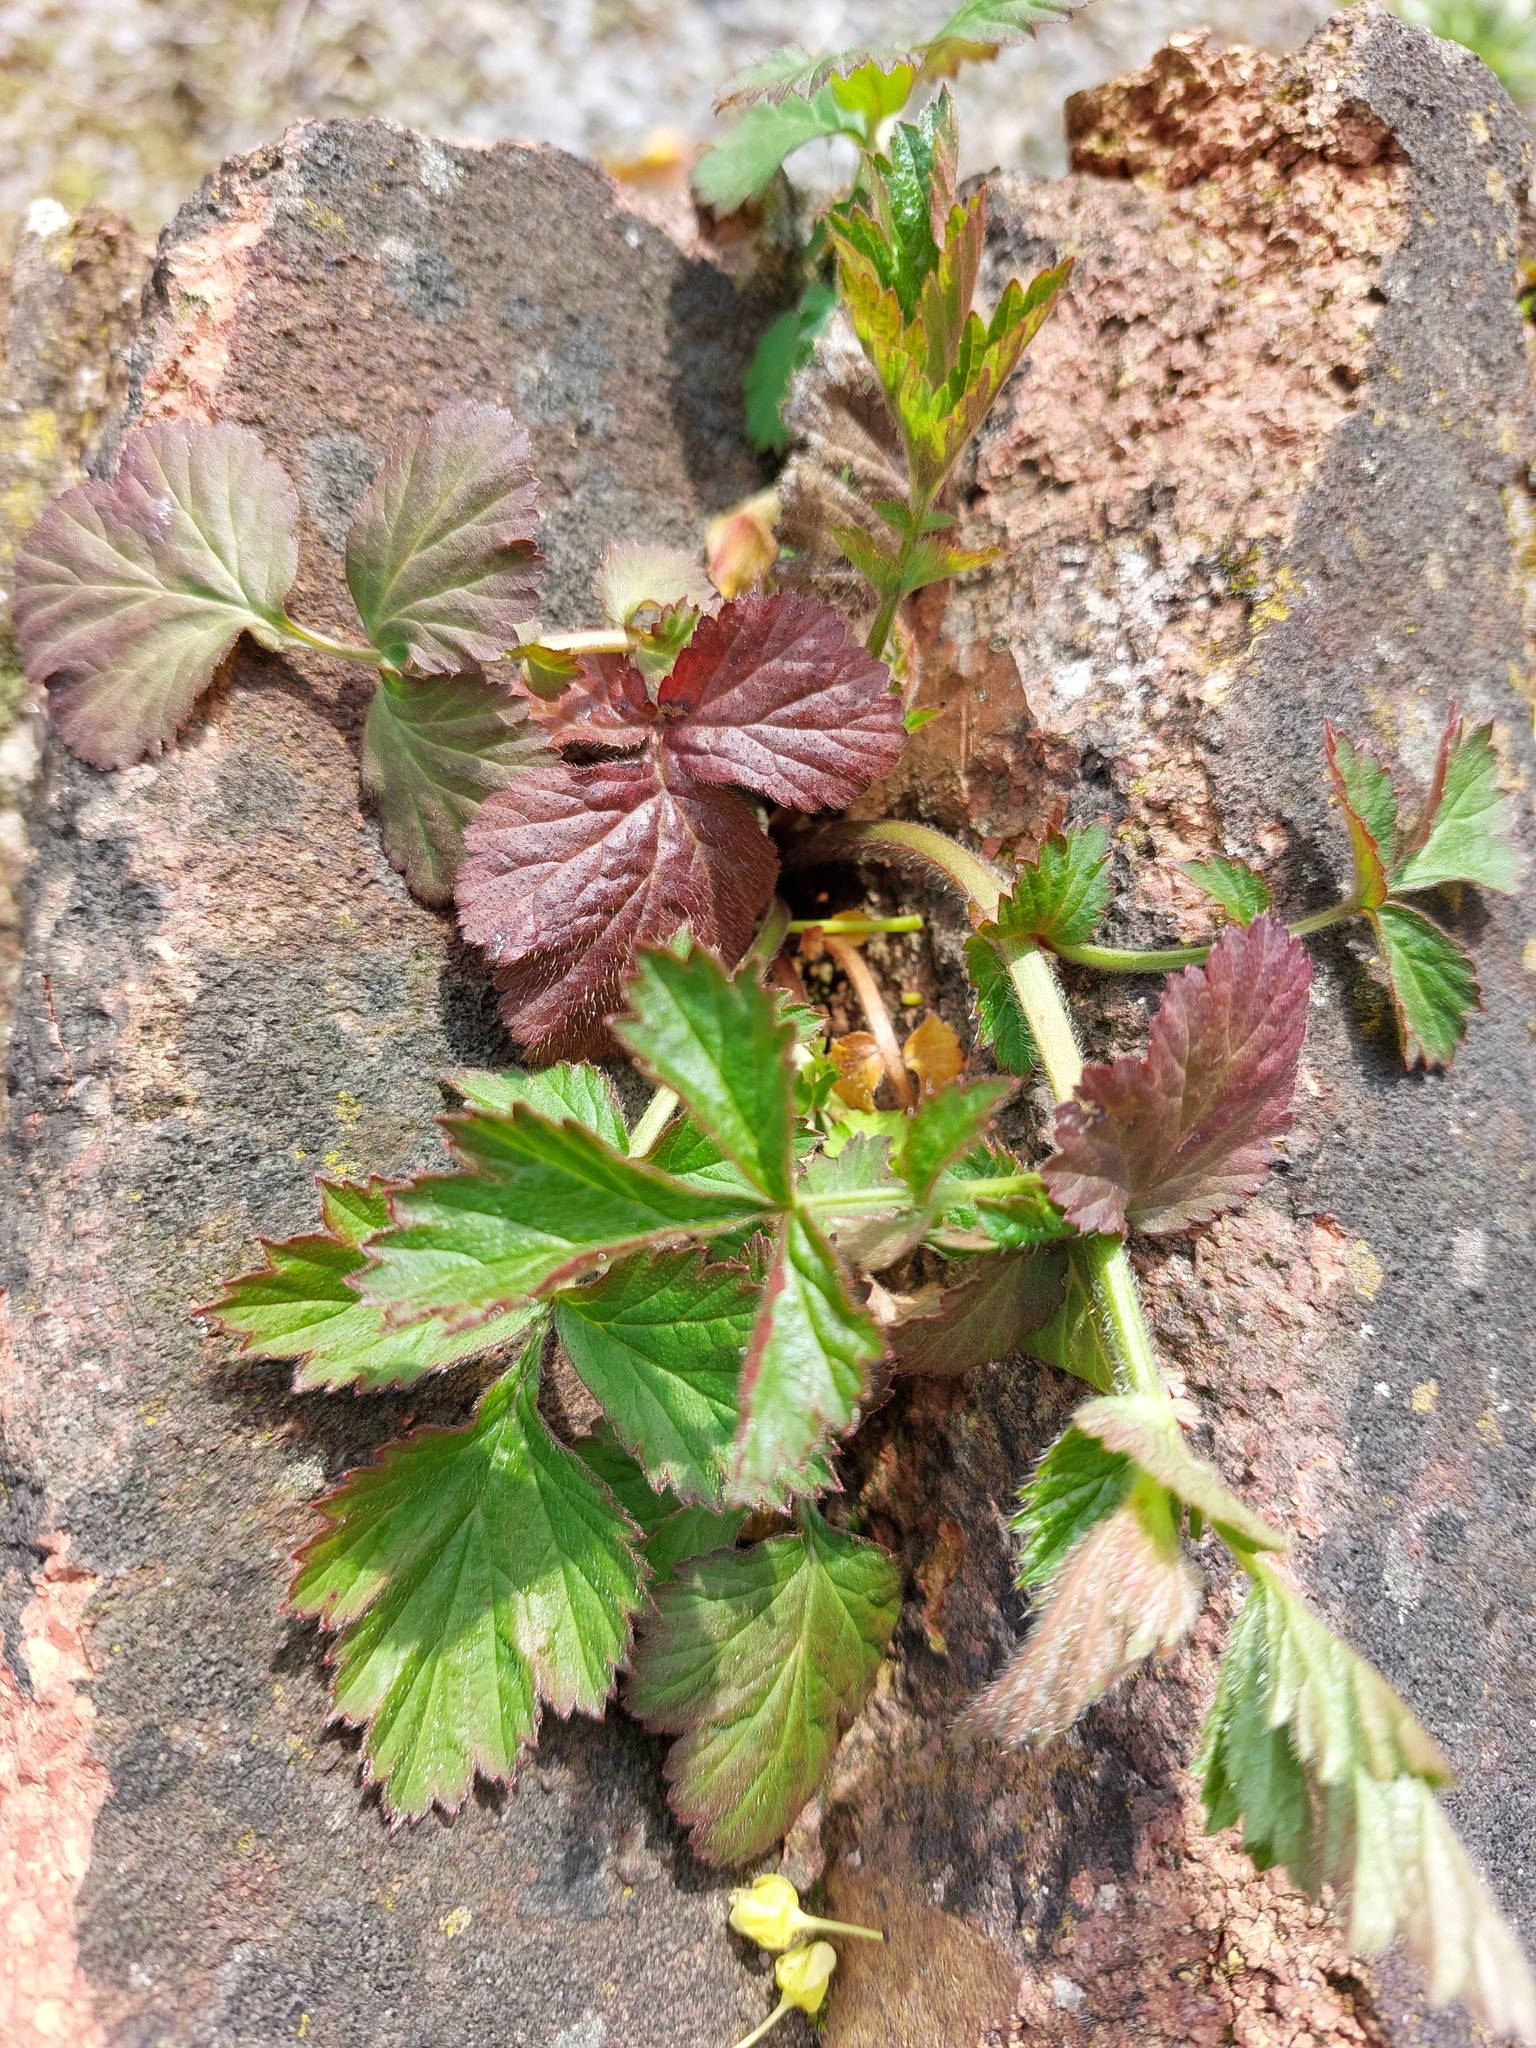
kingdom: Plantae
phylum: Tracheophyta
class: Magnoliopsida
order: Rosales
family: Rosaceae
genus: Geum
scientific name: Geum urbanum
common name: Wood avens
